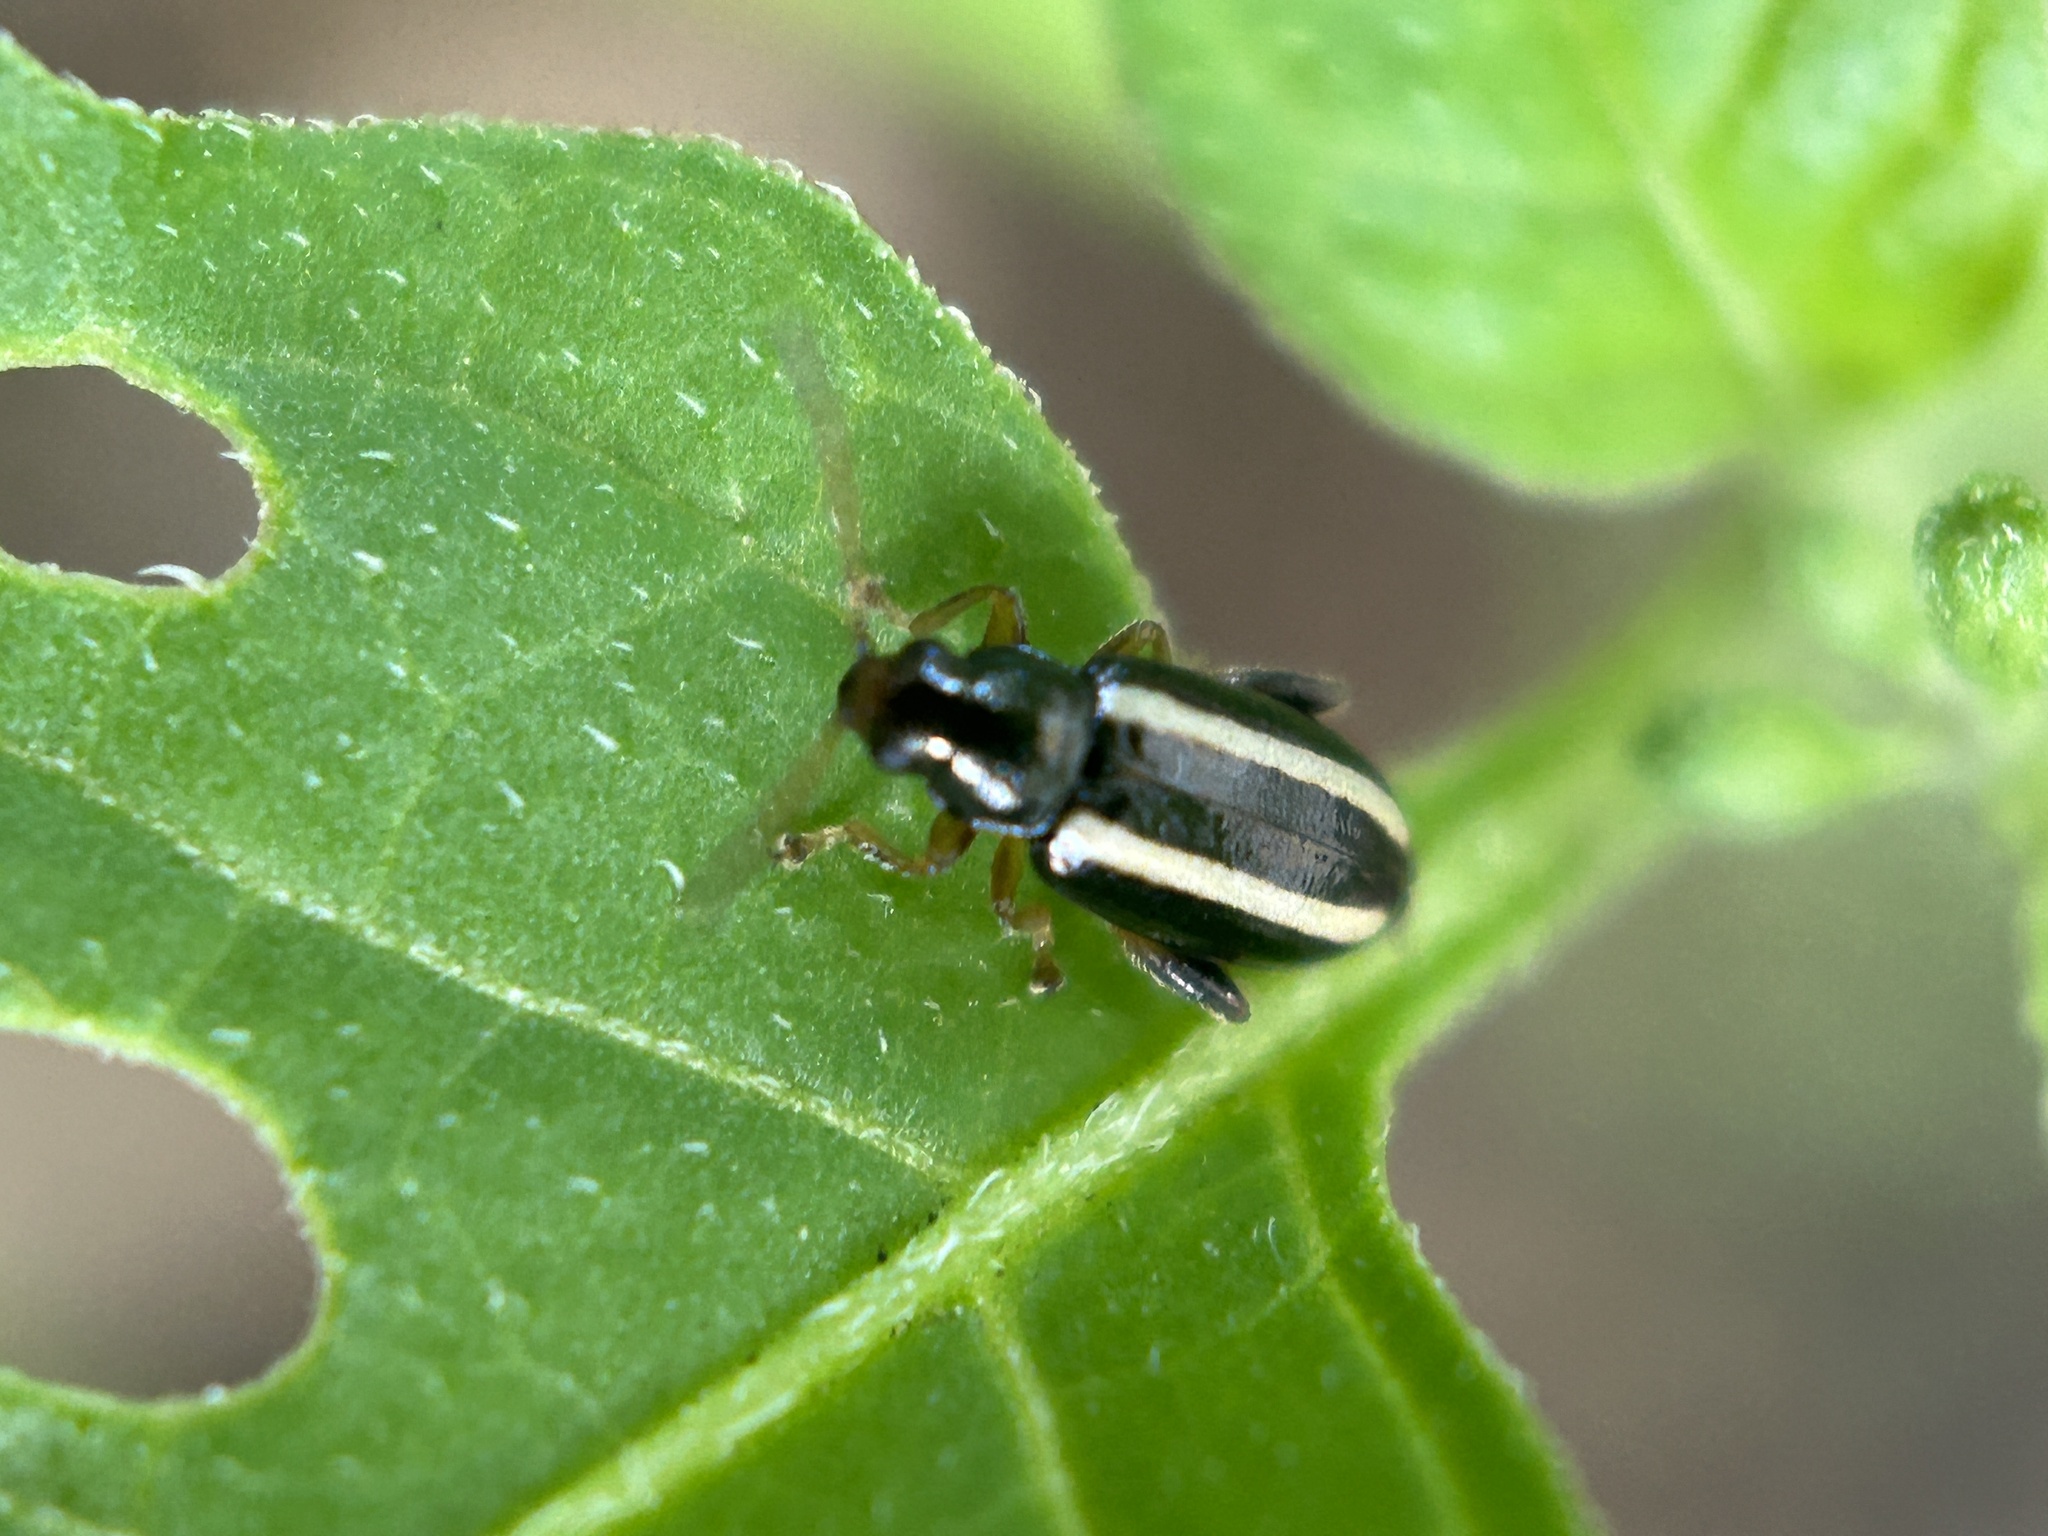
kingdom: Animalia
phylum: Arthropoda
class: Insecta
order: Coleoptera
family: Chrysomelidae
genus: Systena
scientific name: Systena elongata
